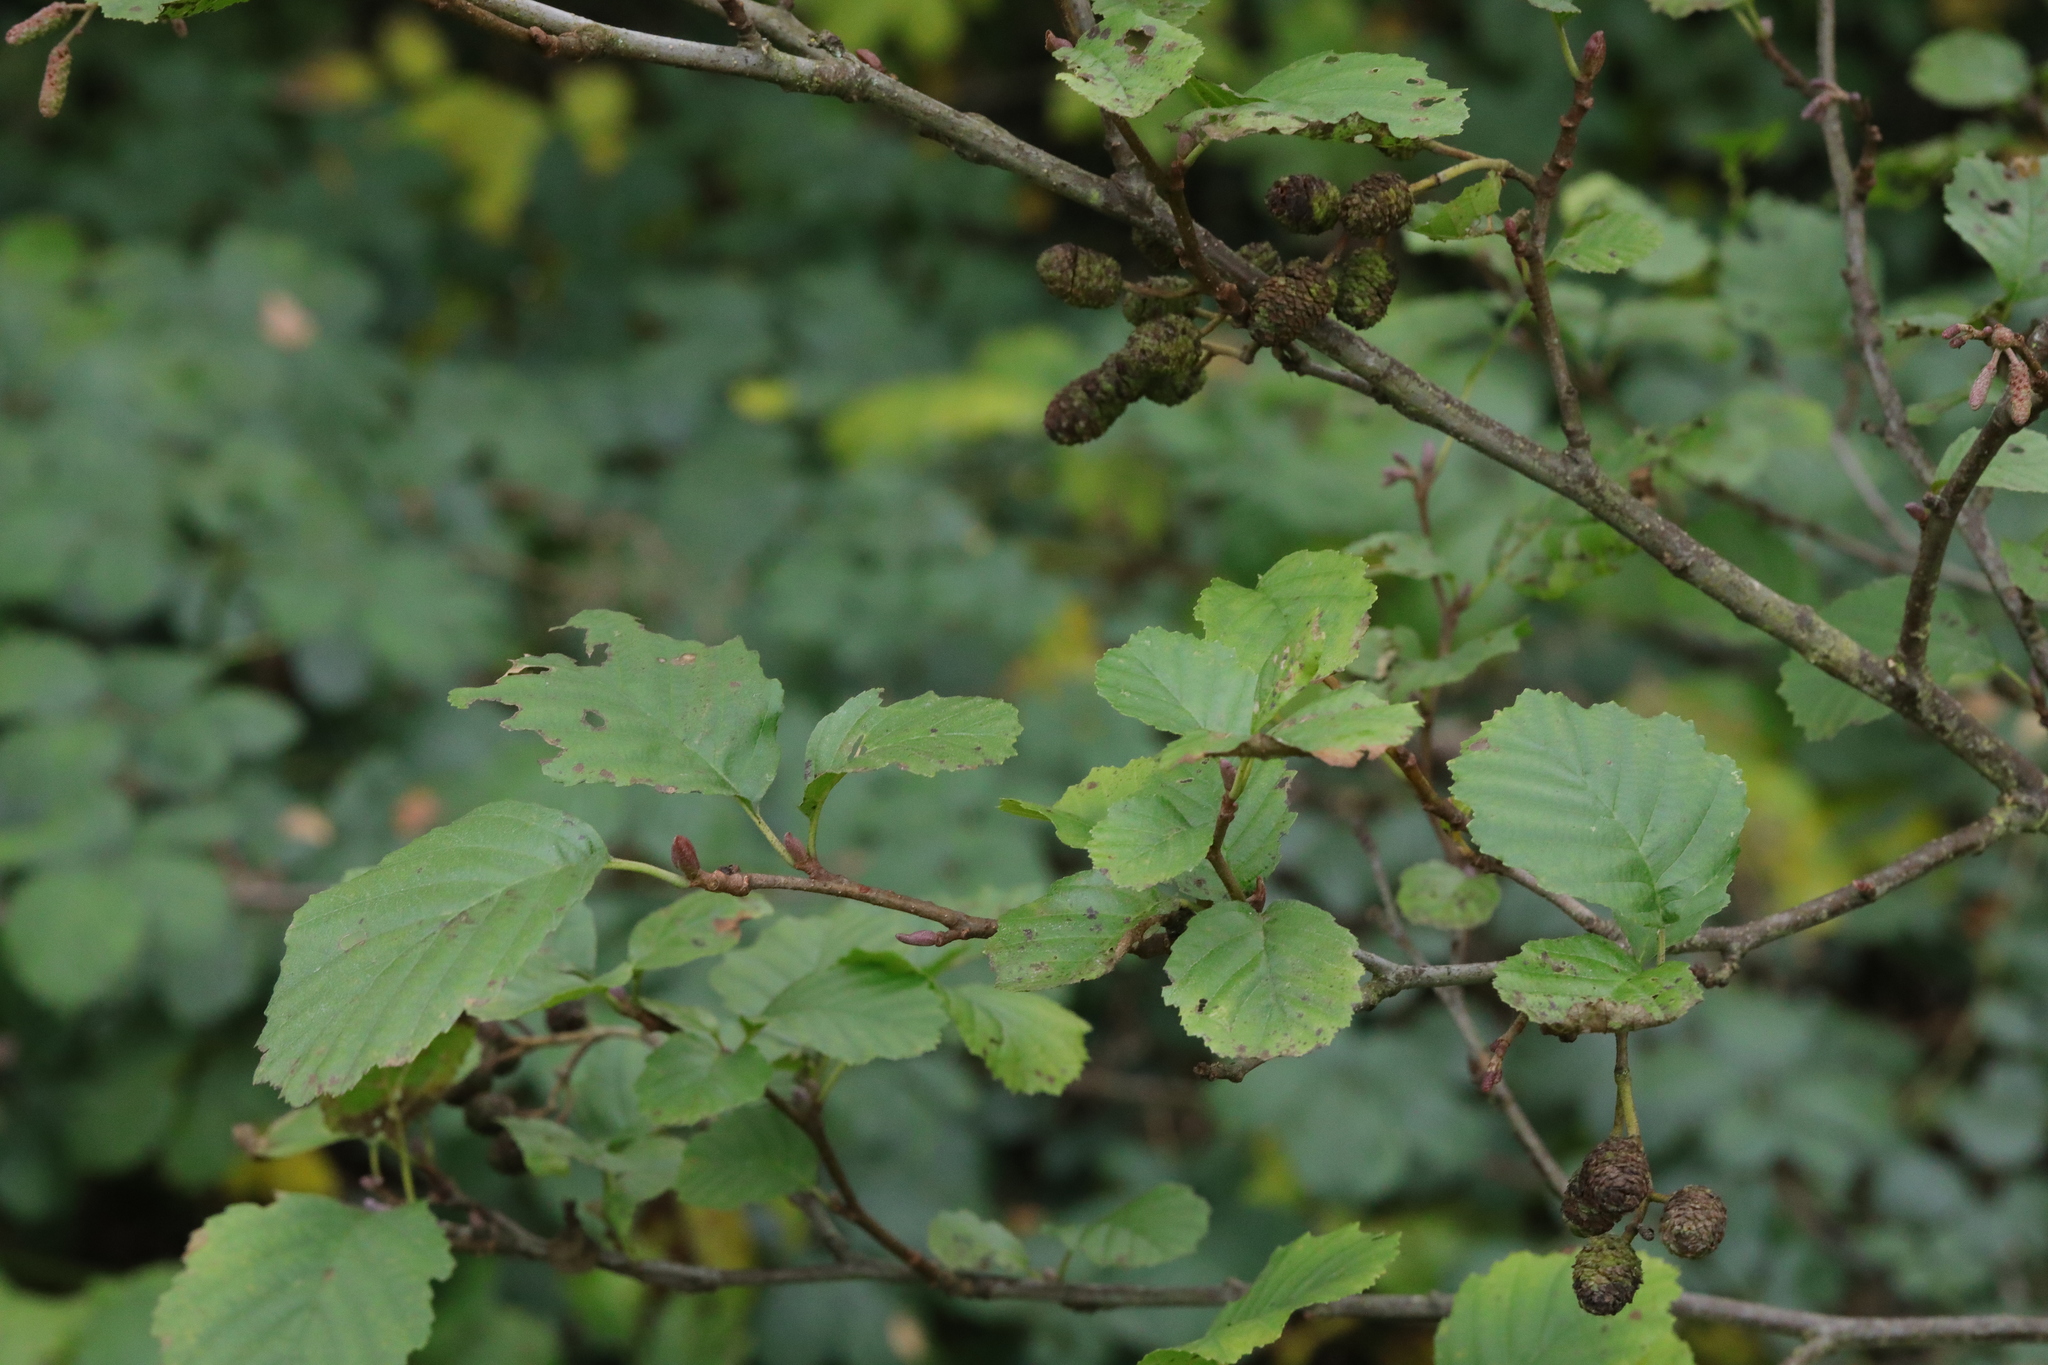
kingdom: Plantae
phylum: Tracheophyta
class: Magnoliopsida
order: Fagales
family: Betulaceae
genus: Alnus
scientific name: Alnus glutinosa
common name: Black alder
